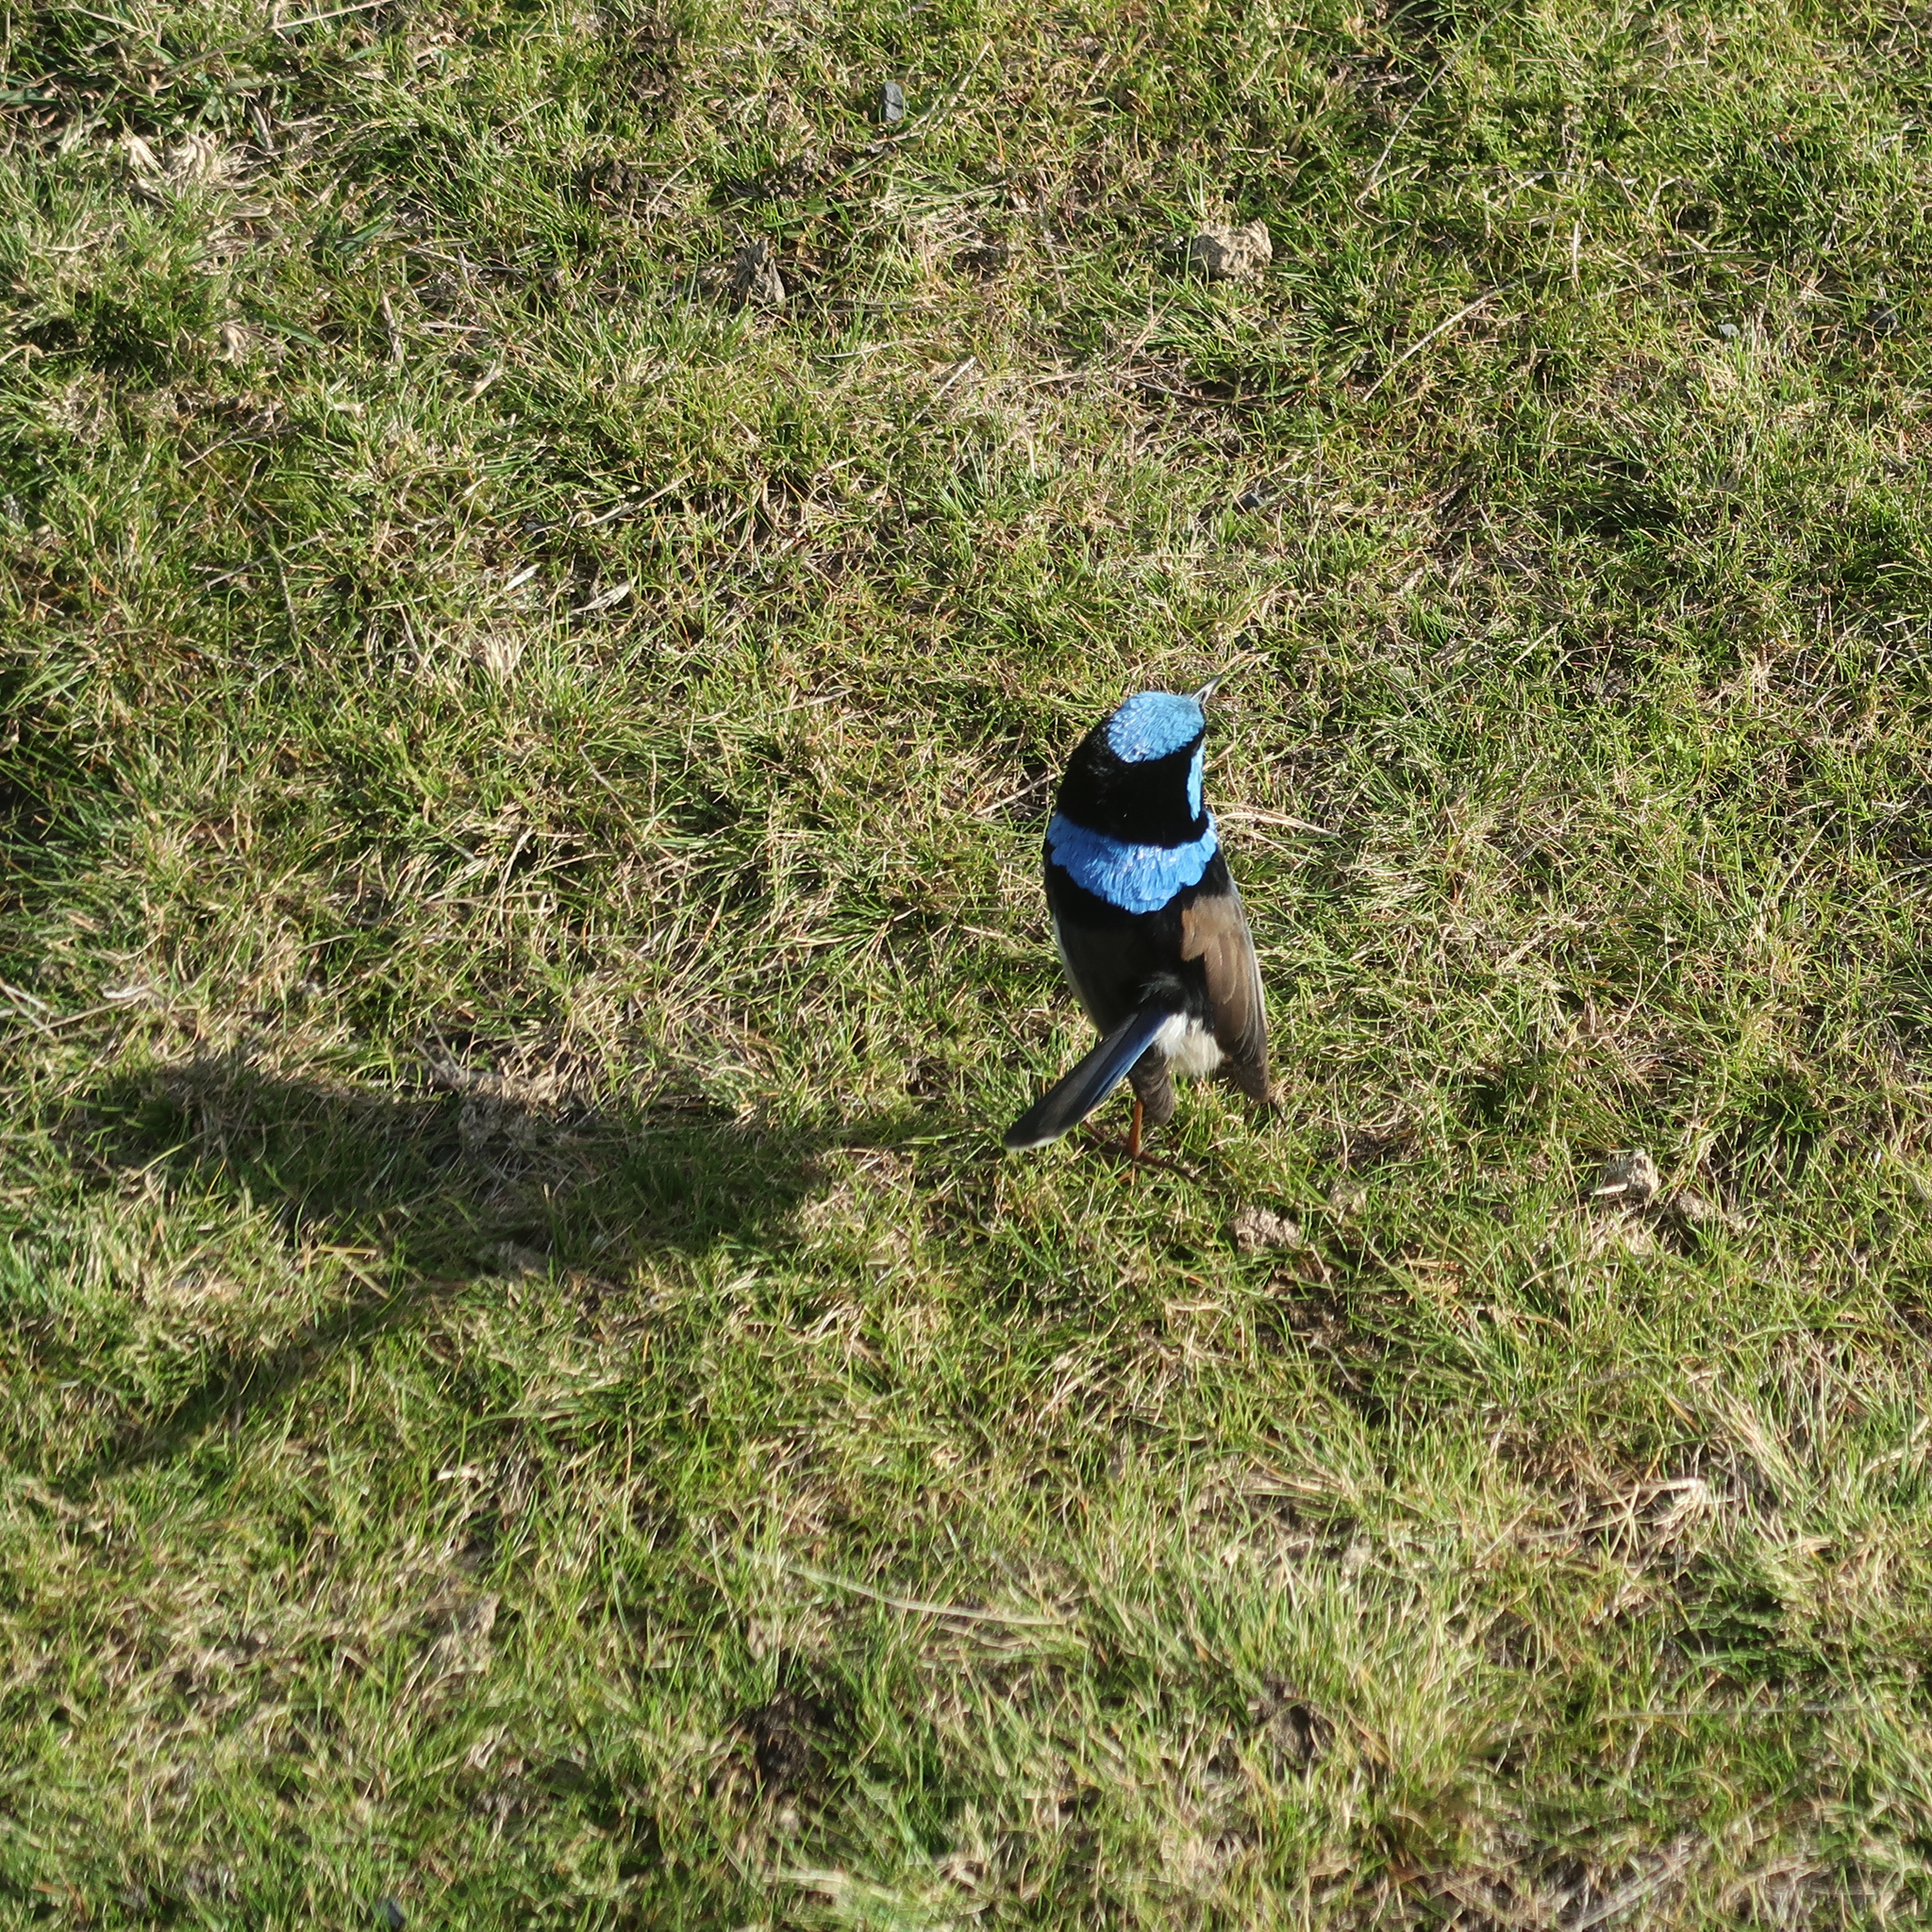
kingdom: Animalia
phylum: Chordata
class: Aves
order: Passeriformes
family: Maluridae
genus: Malurus
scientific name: Malurus cyaneus
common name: Superb fairywren
